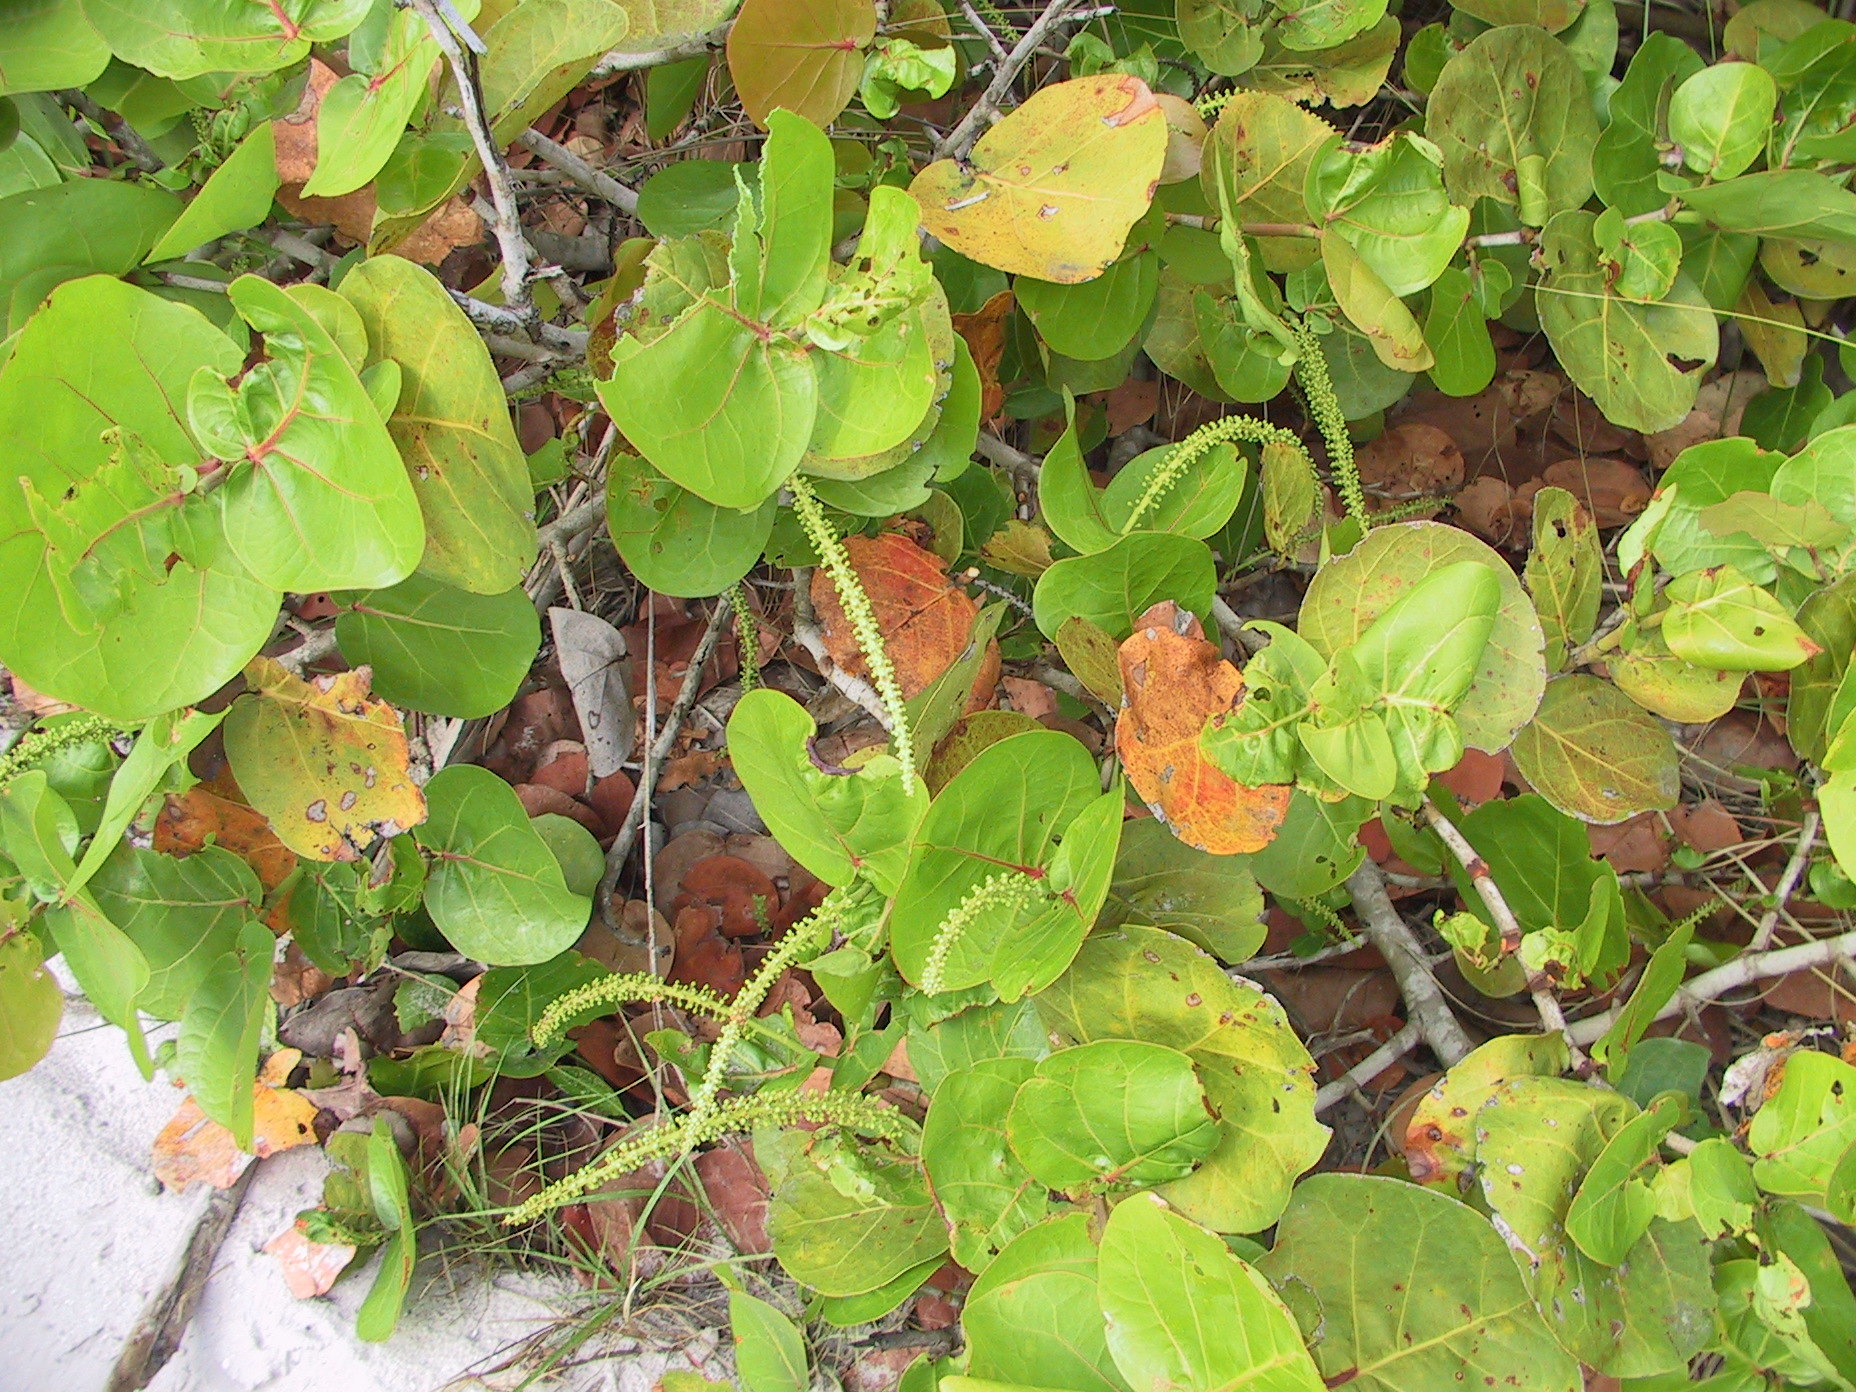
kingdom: Plantae
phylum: Tracheophyta
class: Magnoliopsida
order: Caryophyllales
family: Polygonaceae
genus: Coccoloba
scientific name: Coccoloba uvifera
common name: Seagrape
